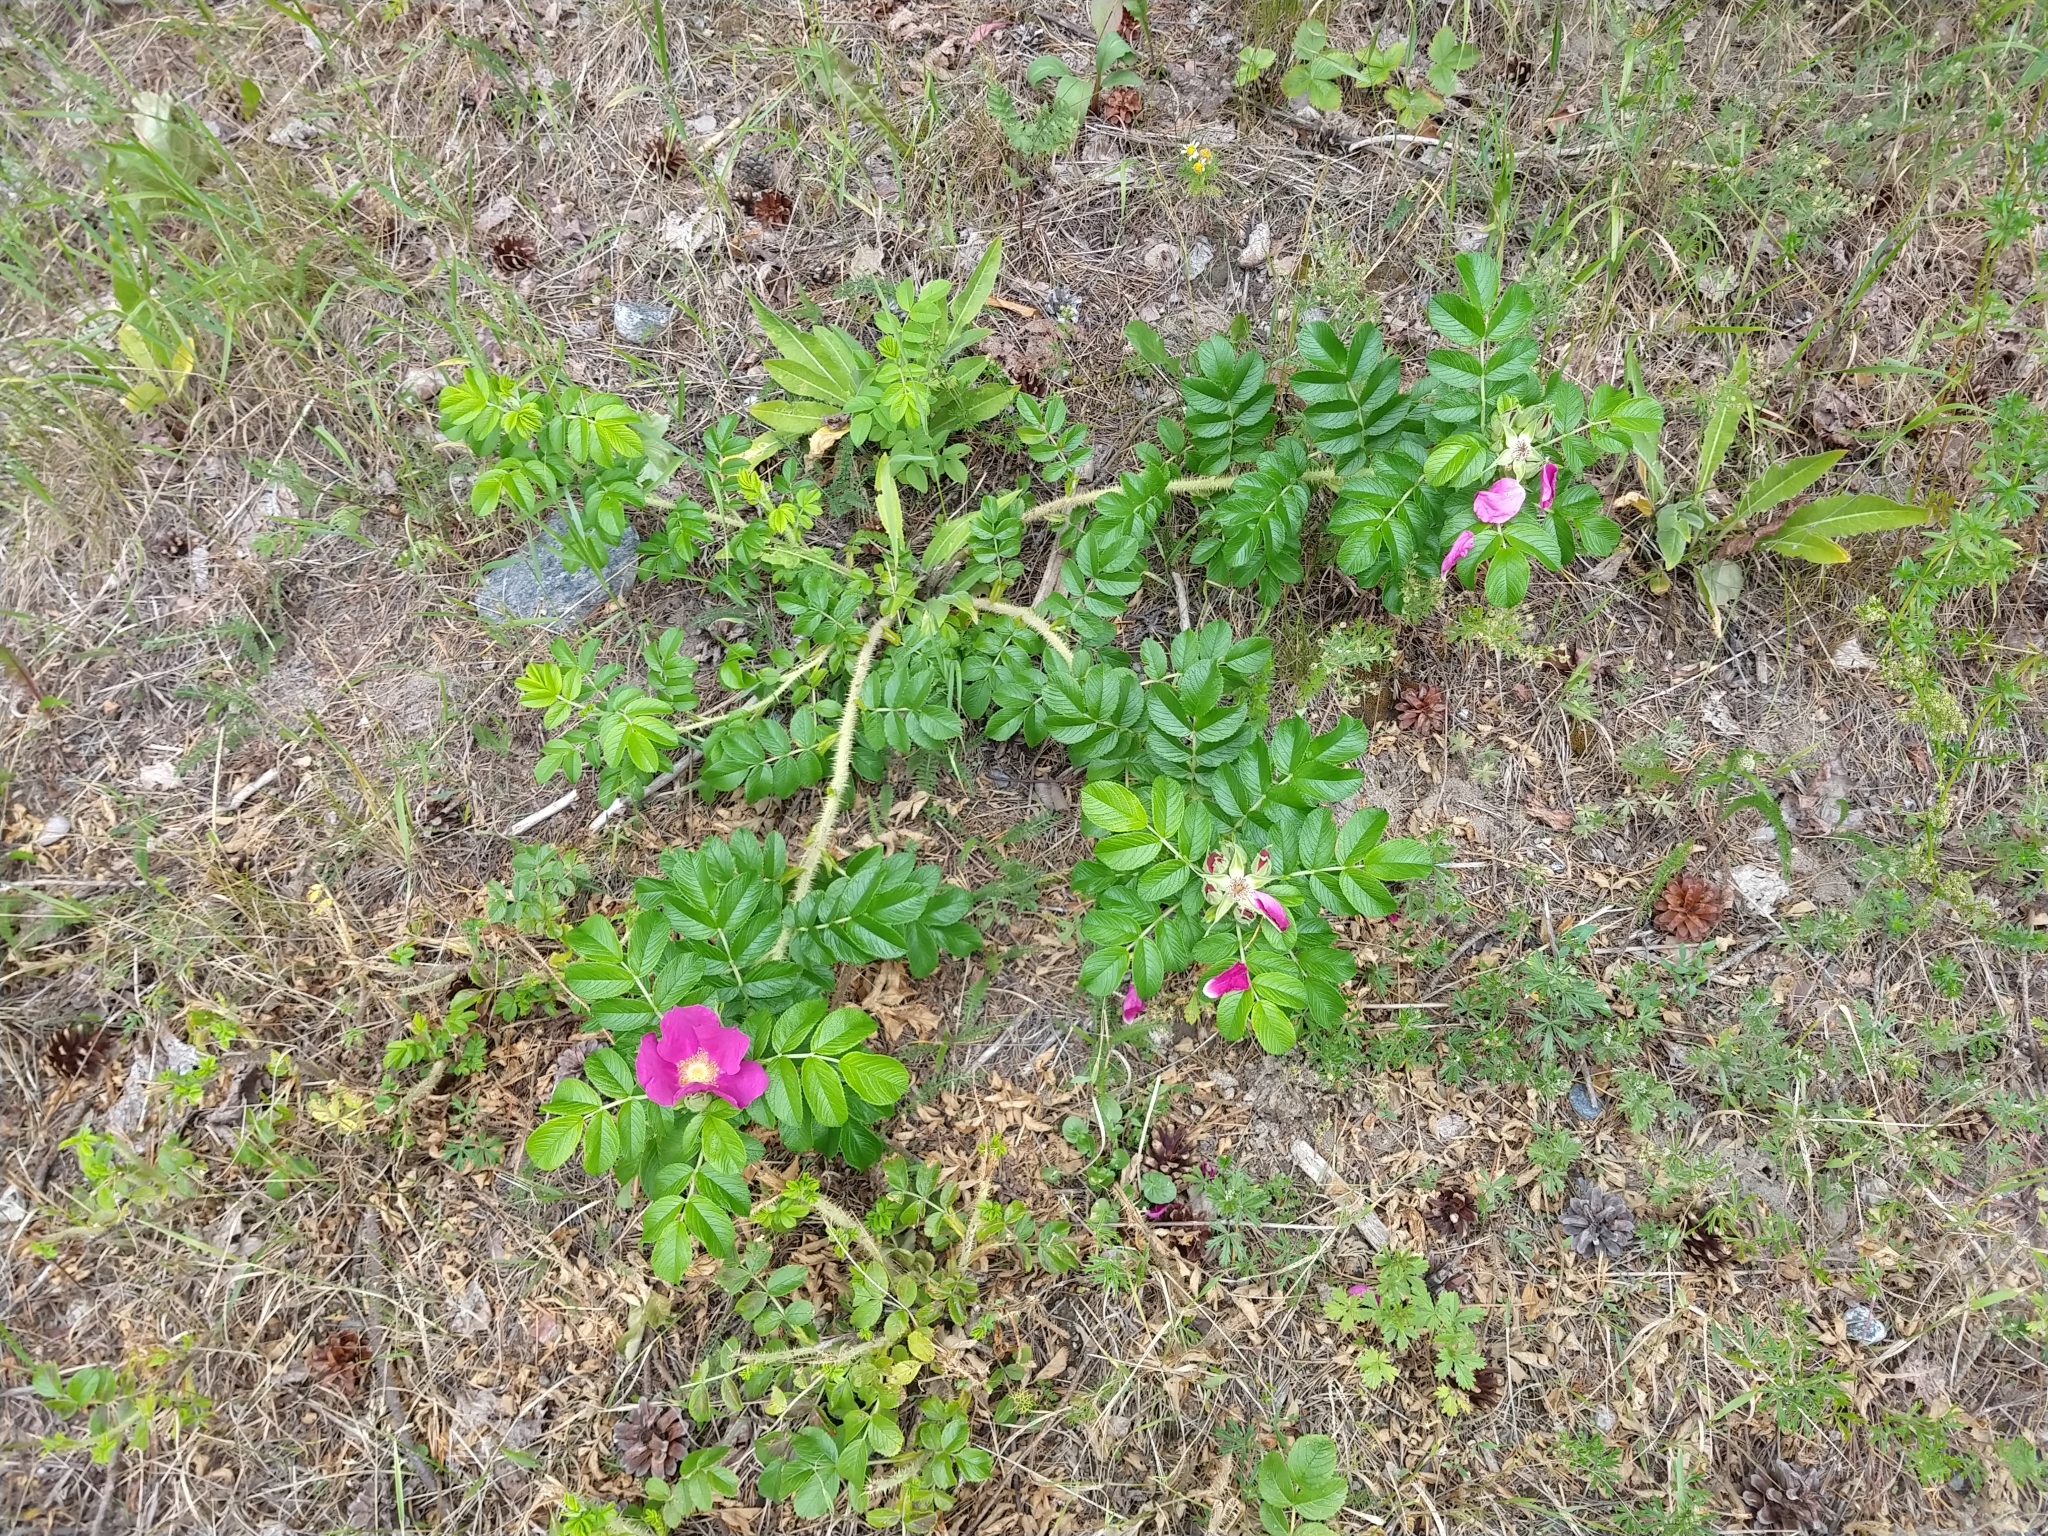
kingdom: Plantae
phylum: Tracheophyta
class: Magnoliopsida
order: Rosales
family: Rosaceae
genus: Rosa
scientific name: Rosa rugosa
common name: Japanese rose
